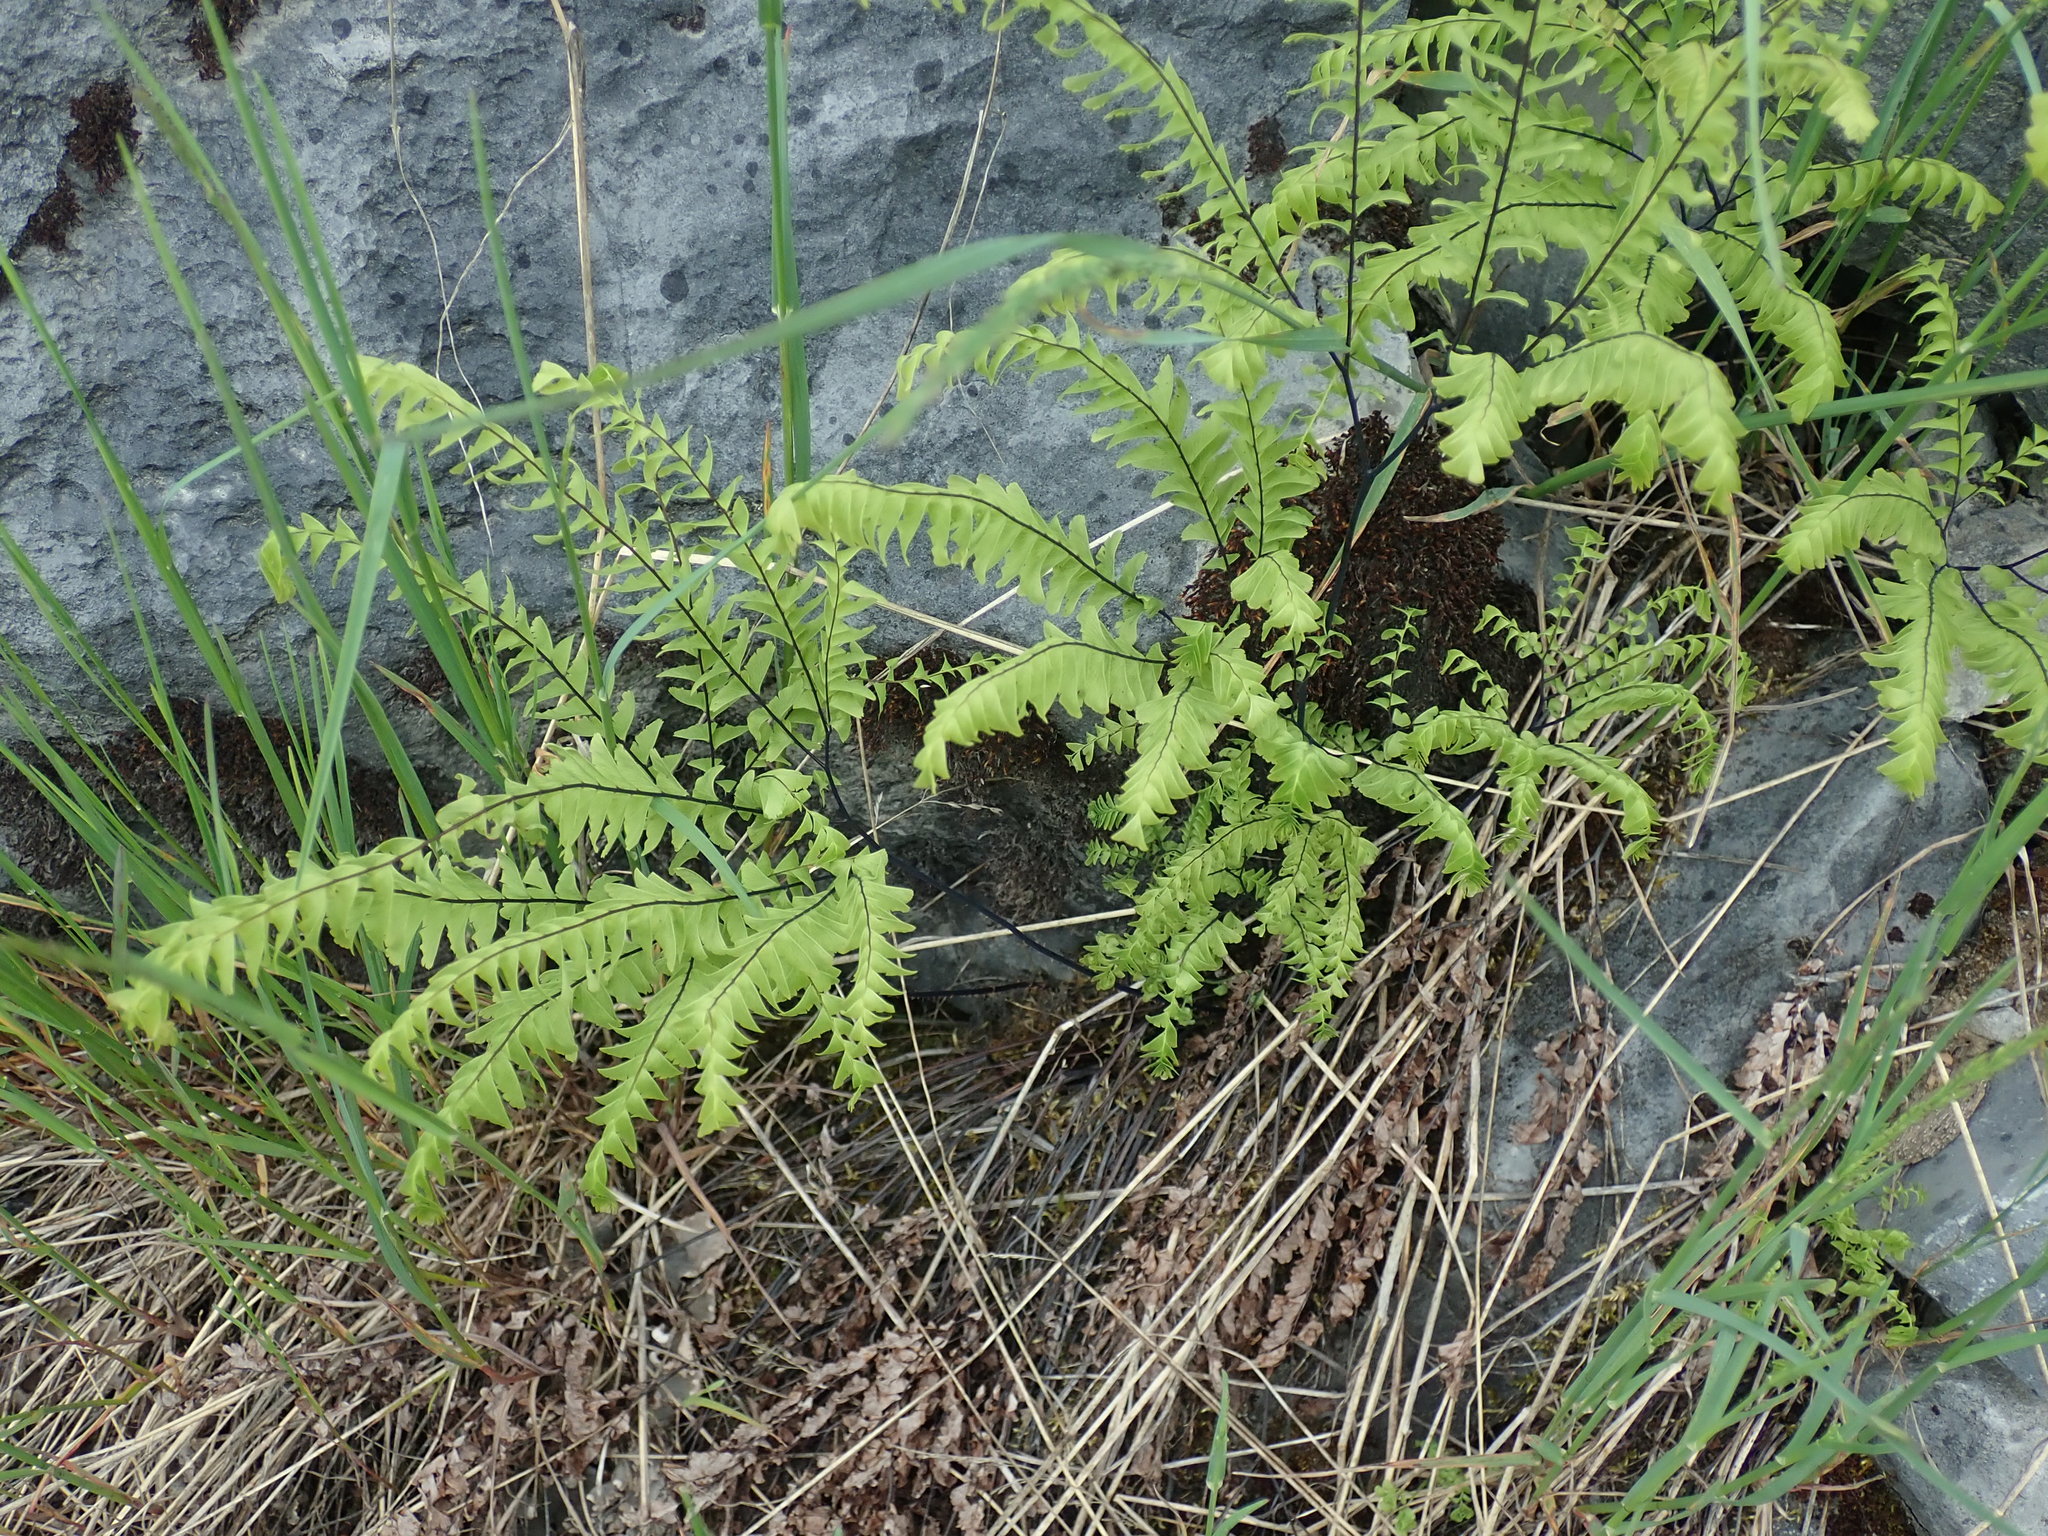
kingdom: Plantae
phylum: Tracheophyta
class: Polypodiopsida
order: Polypodiales
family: Pteridaceae
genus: Adiantum
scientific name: Adiantum aleuticum
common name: Aleutian maidenhair fern
